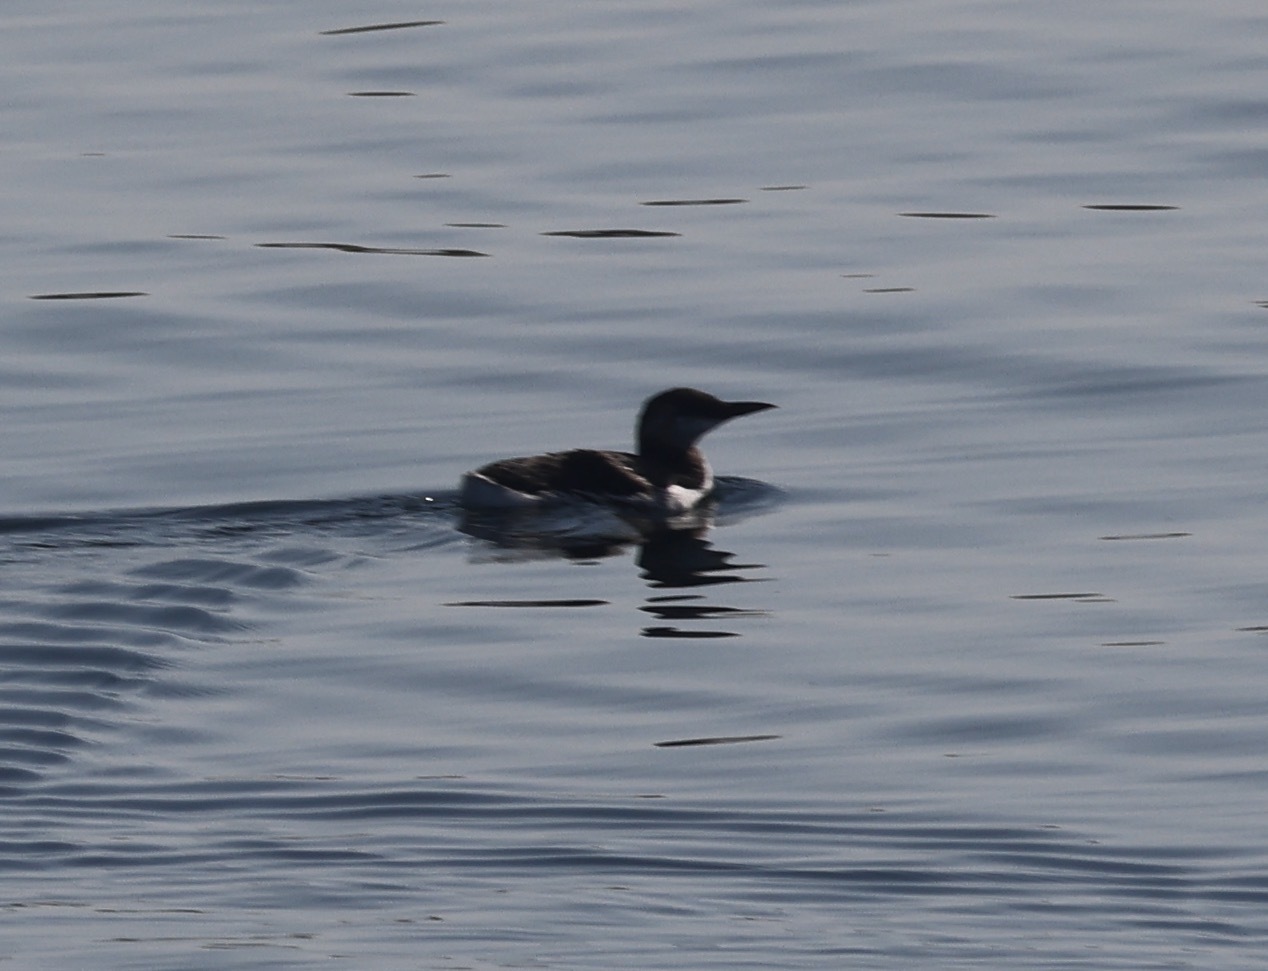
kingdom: Animalia
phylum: Chordata
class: Aves
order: Charadriiformes
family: Alcidae
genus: Uria
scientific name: Uria aalge
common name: Common murre
